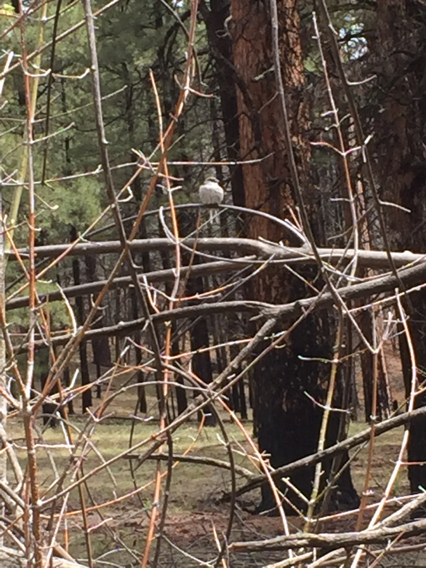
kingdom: Animalia
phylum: Chordata
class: Aves
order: Passeriformes
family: Passerellidae
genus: Junco
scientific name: Junco hyemalis
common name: Dark-eyed junco
